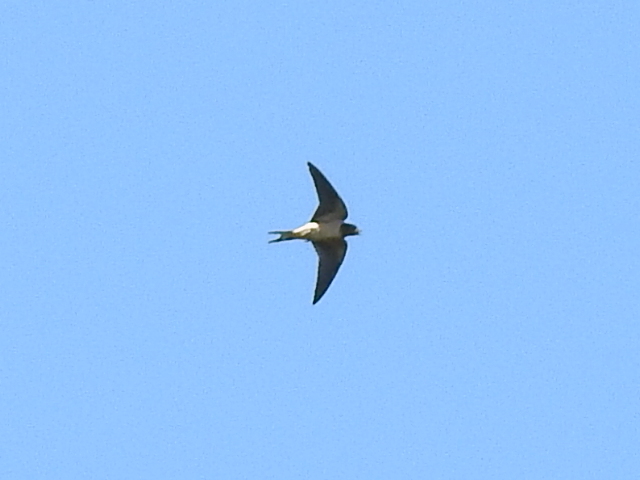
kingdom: Animalia
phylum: Chordata
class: Aves
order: Passeriformes
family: Hirundinidae
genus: Hirundo
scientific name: Hirundo rustica
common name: Barn swallow
